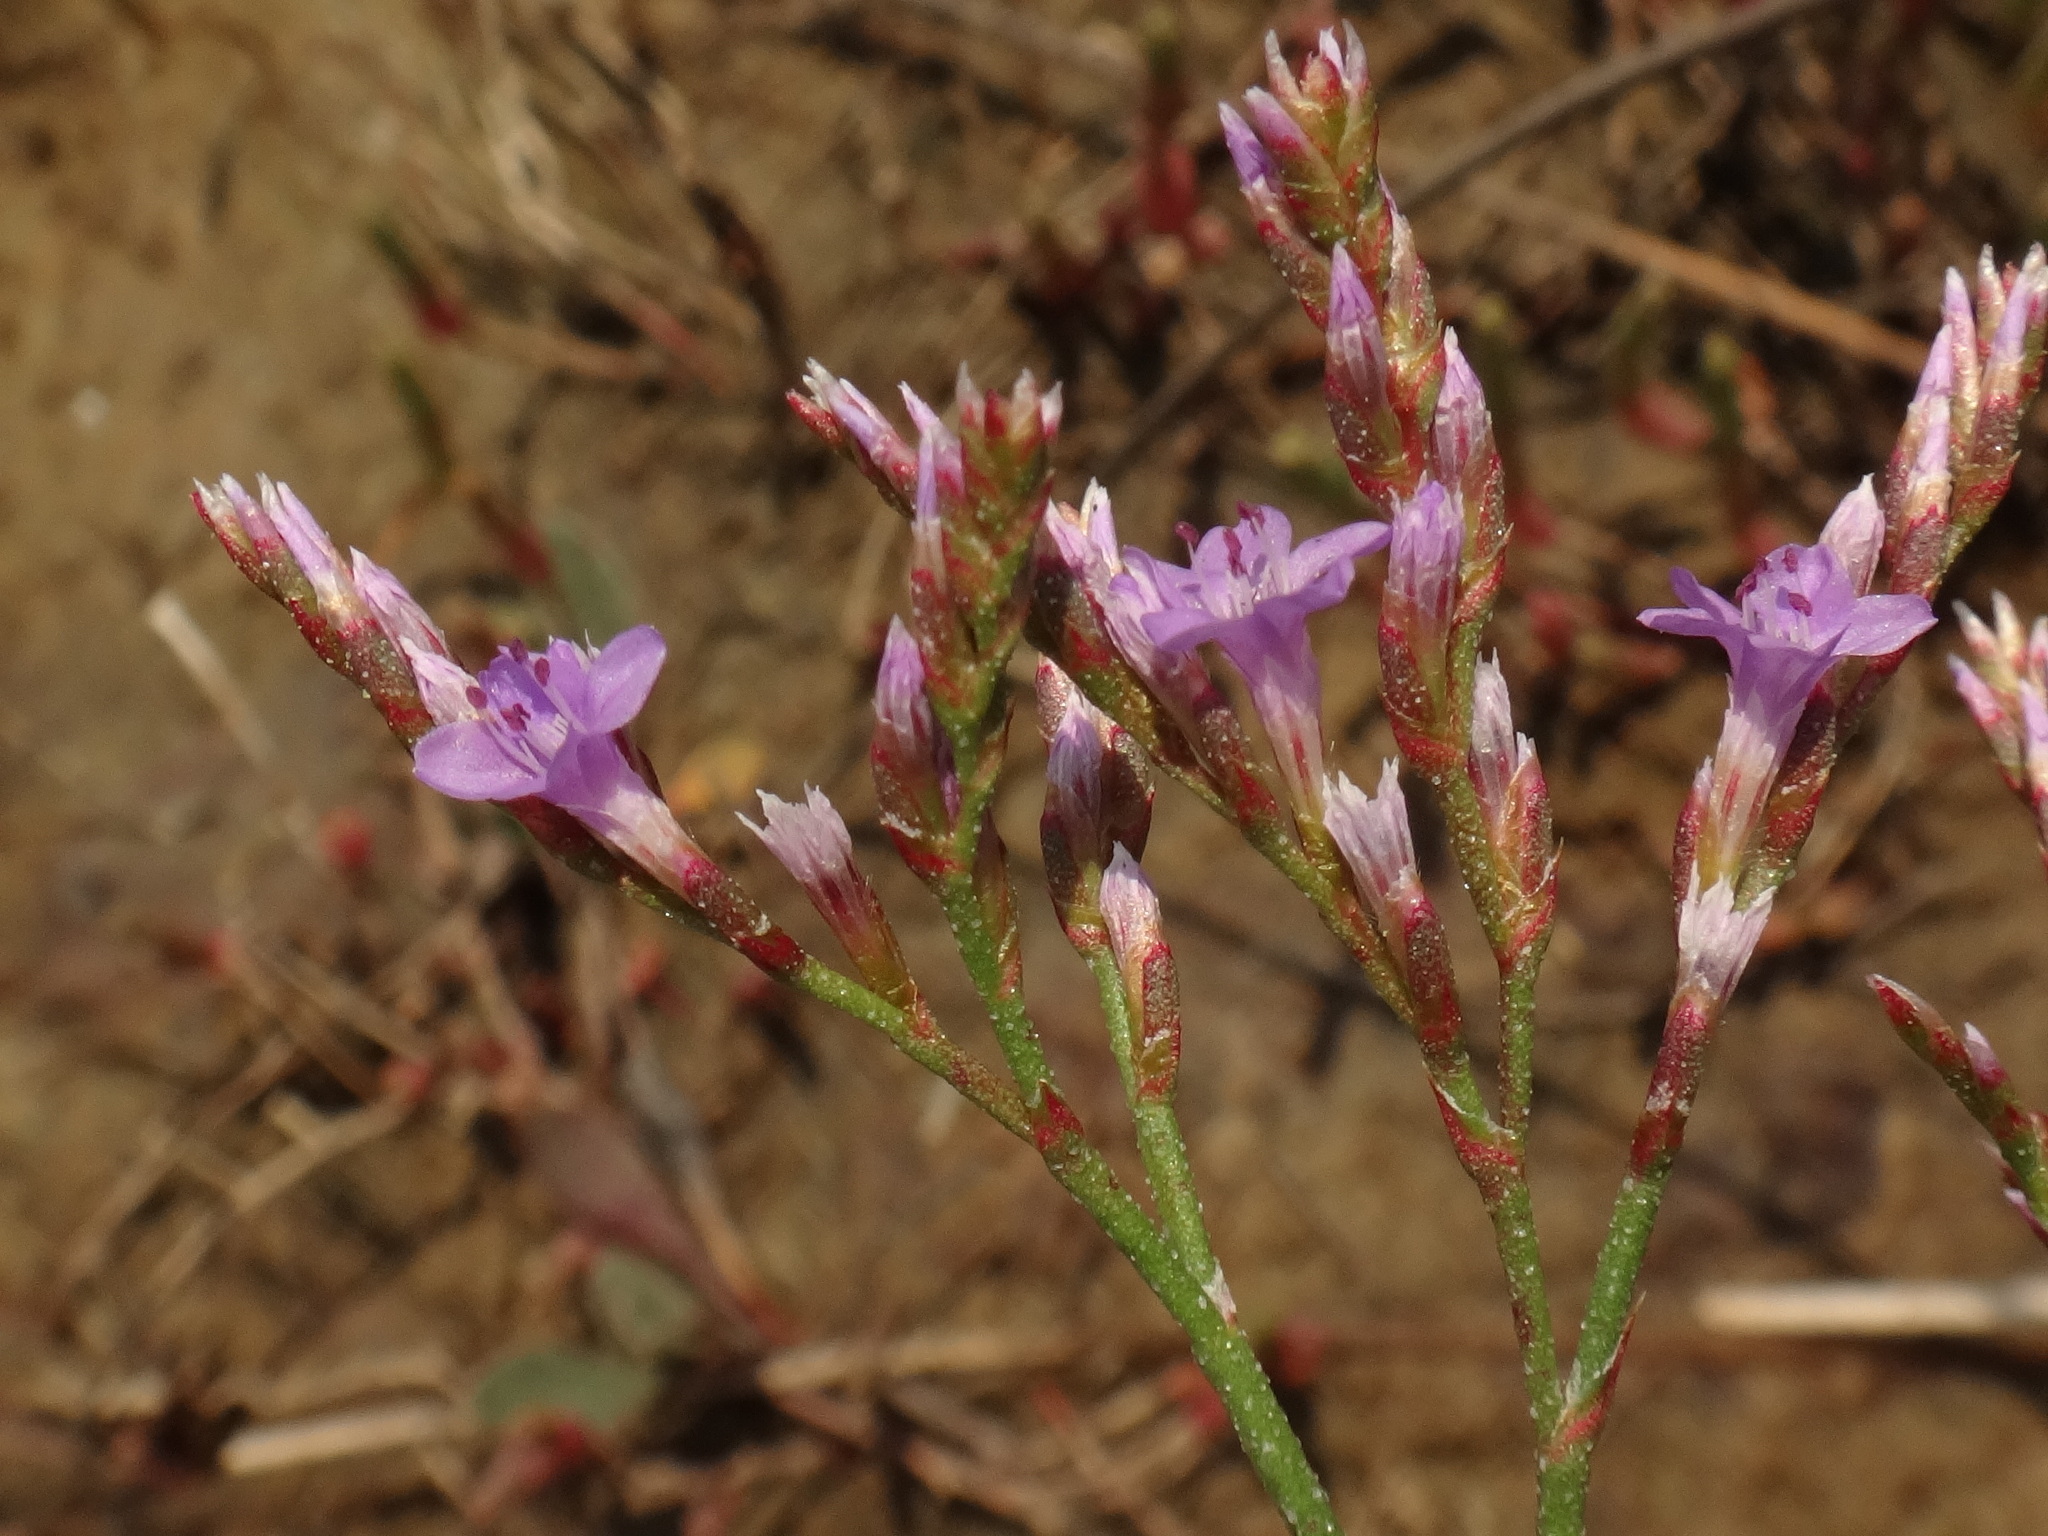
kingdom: Plantae
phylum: Tracheophyta
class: Magnoliopsida
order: Caryophyllales
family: Plumbaginaceae
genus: Limonium
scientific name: Limonium narbonense
